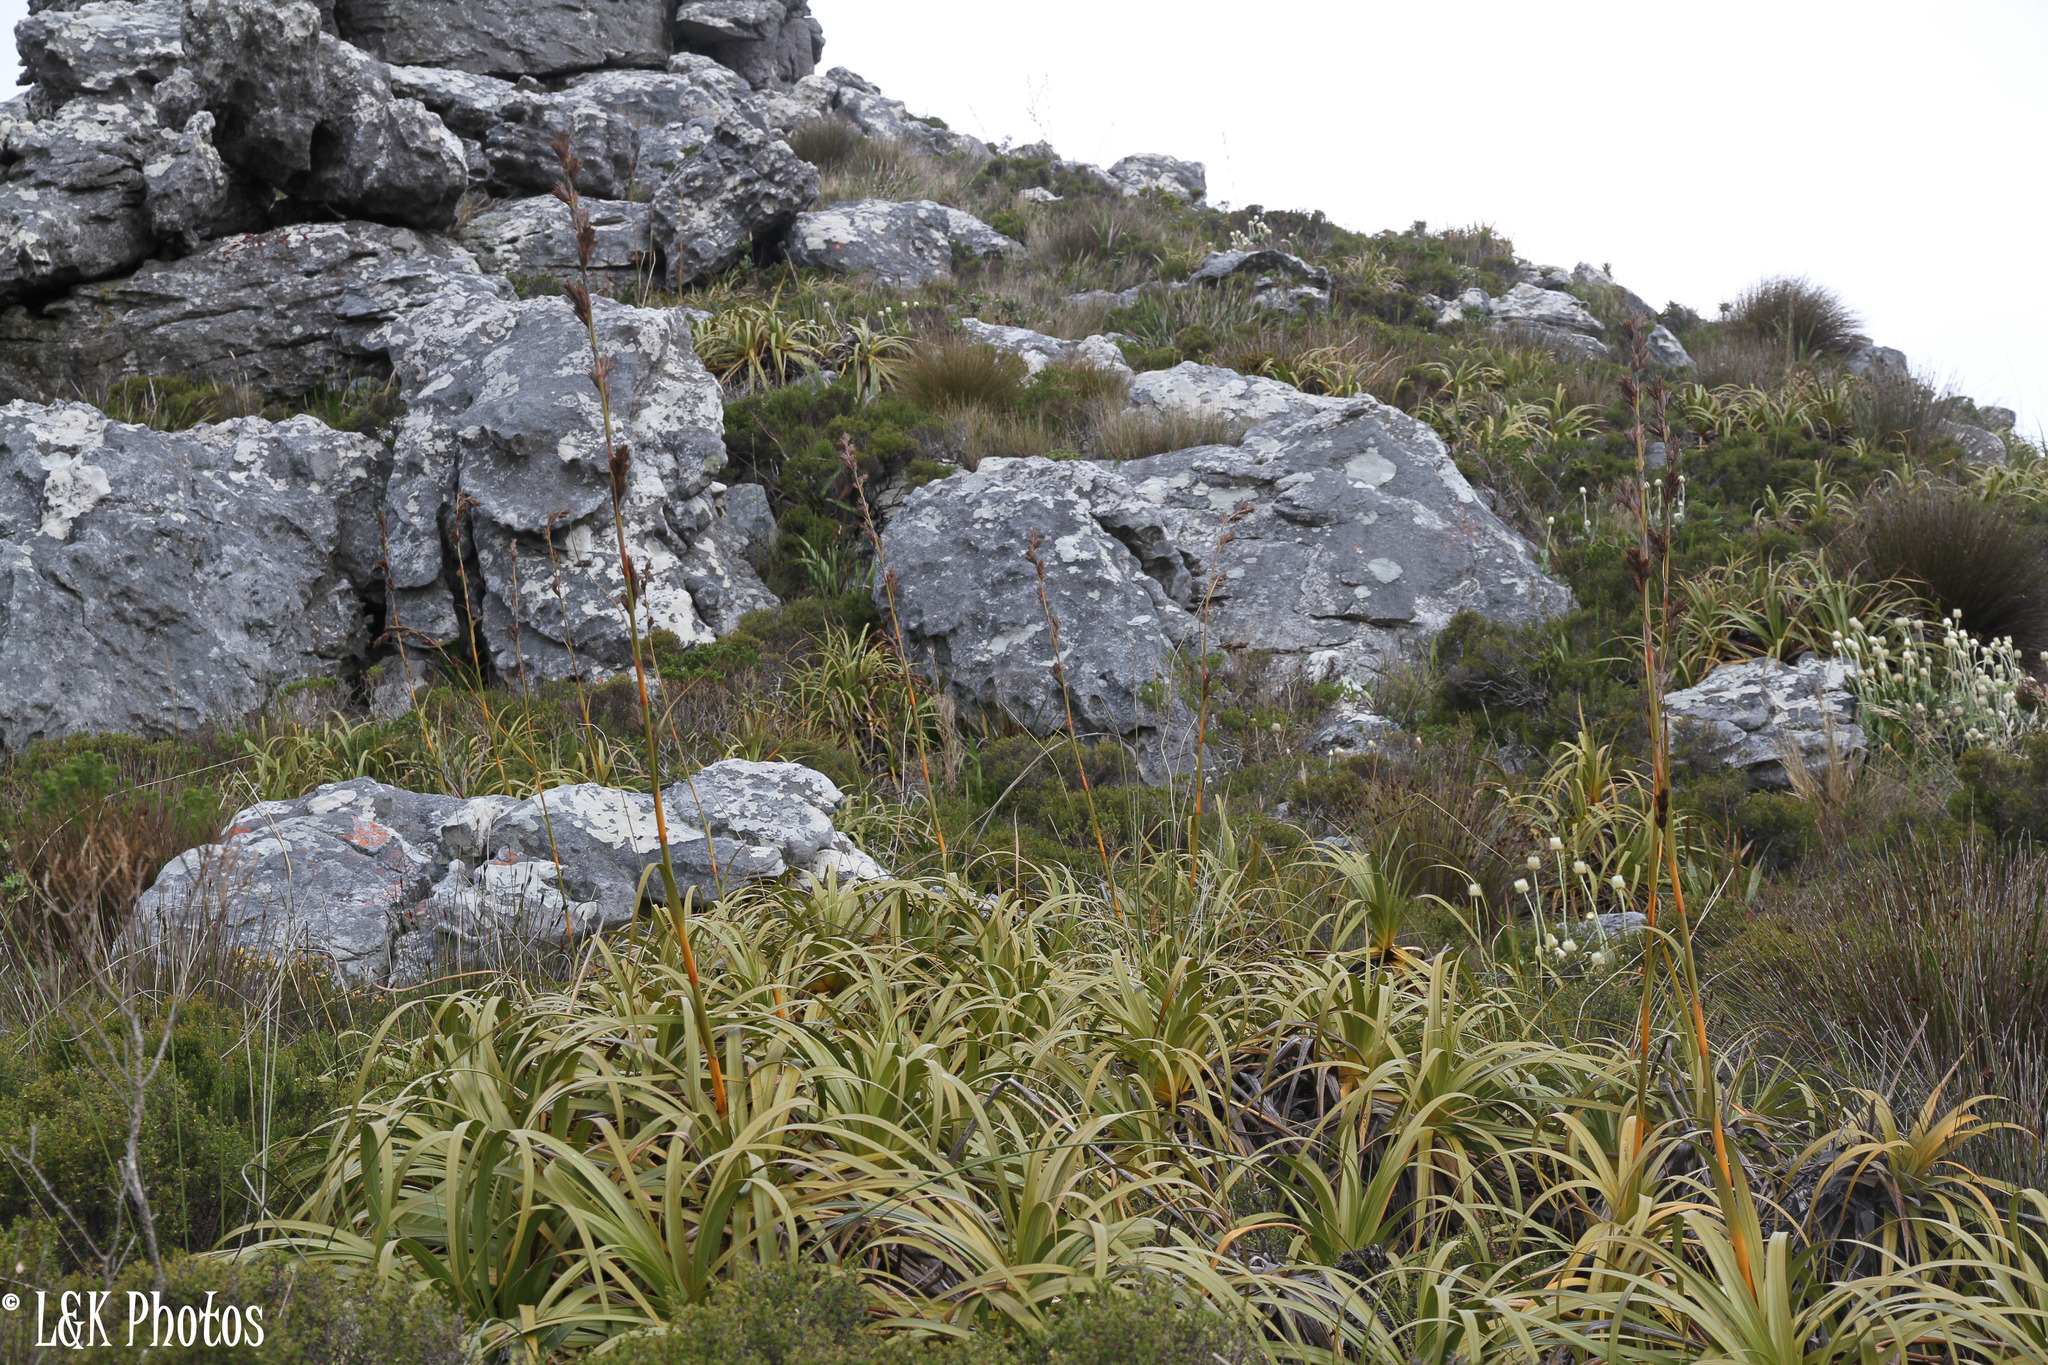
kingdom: Plantae
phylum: Tracheophyta
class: Liliopsida
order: Poales
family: Cyperaceae
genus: Tetraria
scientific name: Tetraria thermalis
